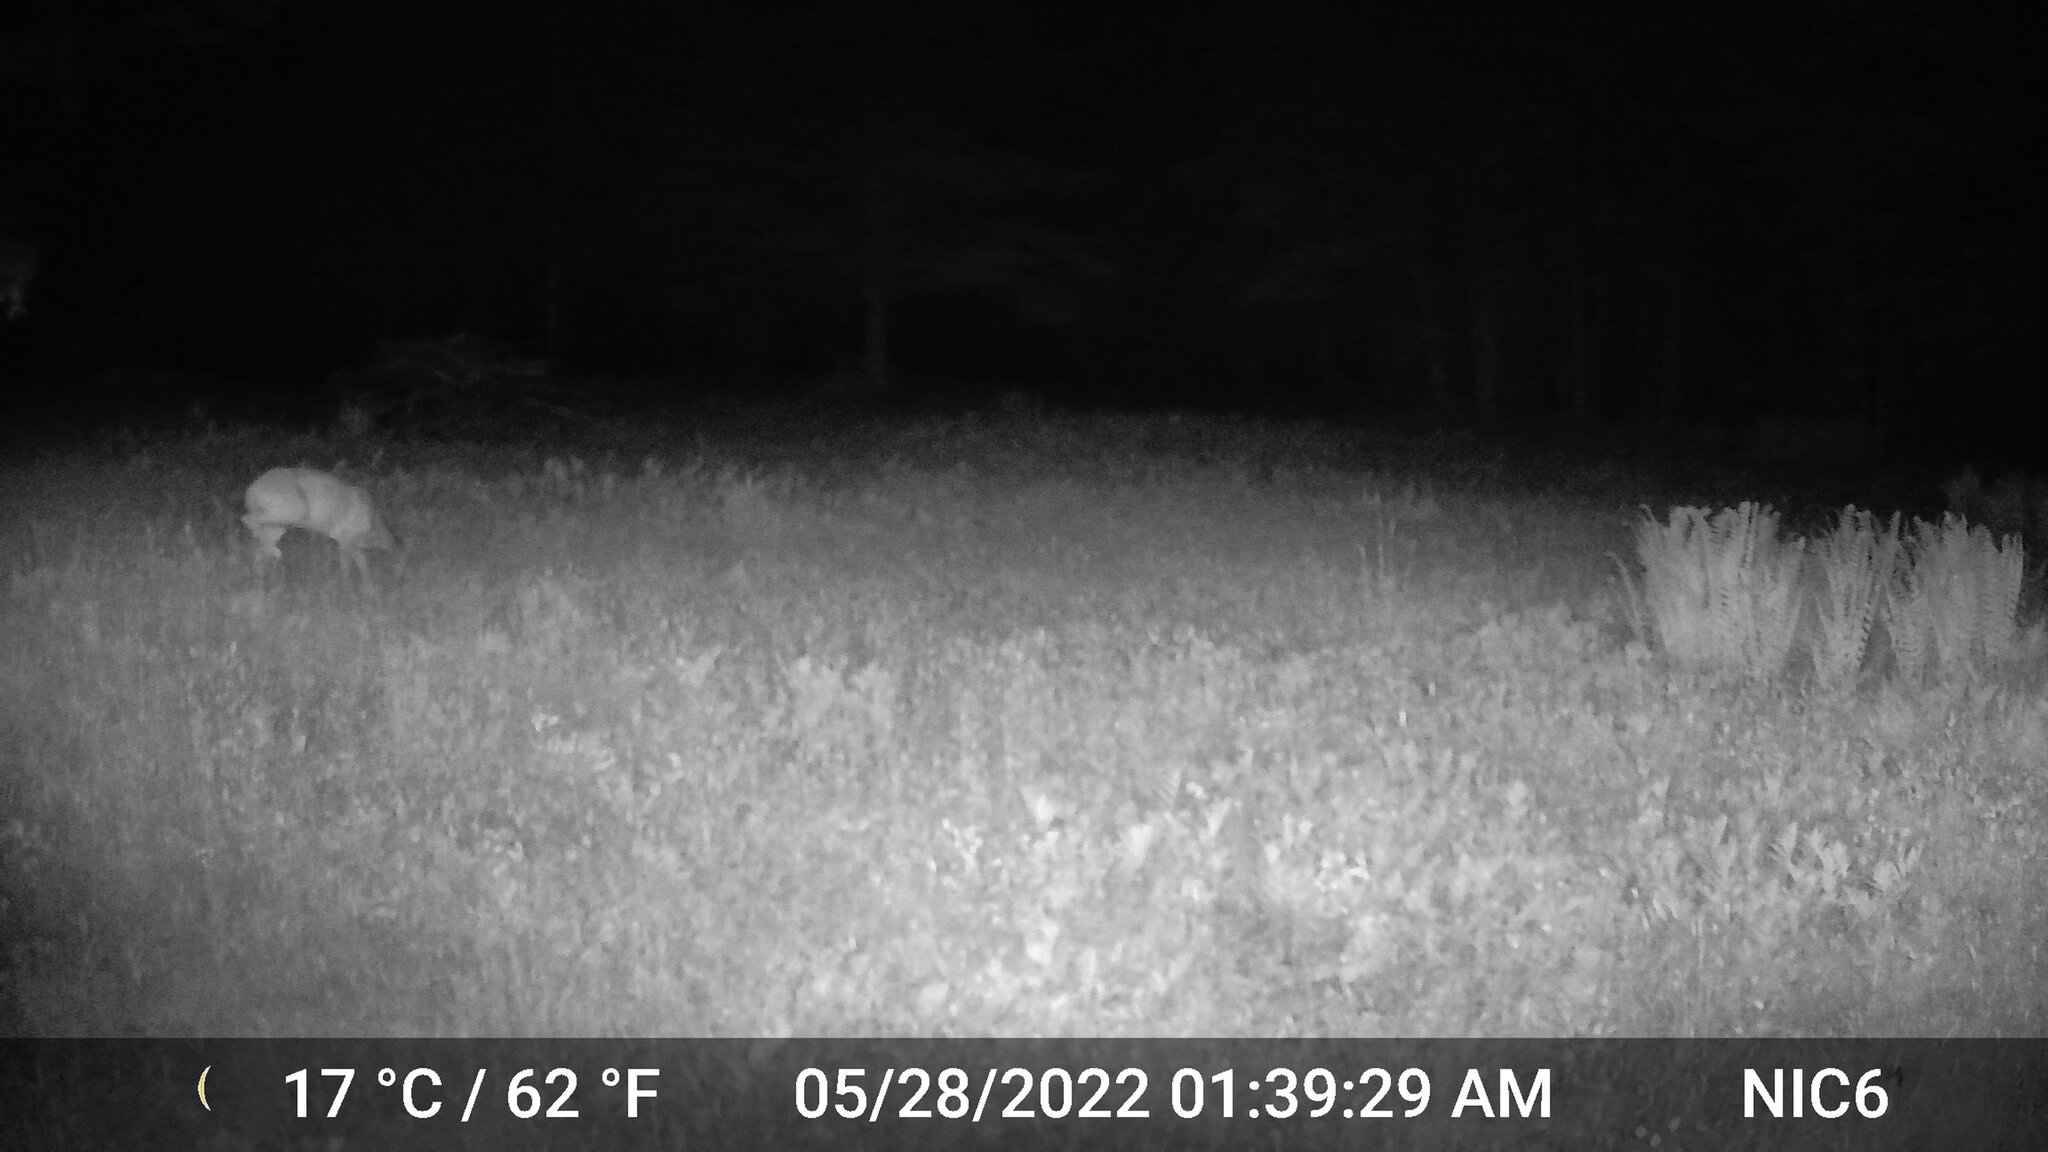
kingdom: Animalia
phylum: Chordata
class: Mammalia
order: Artiodactyla
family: Cervidae
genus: Odocoileus
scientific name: Odocoileus virginianus
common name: White-tailed deer
